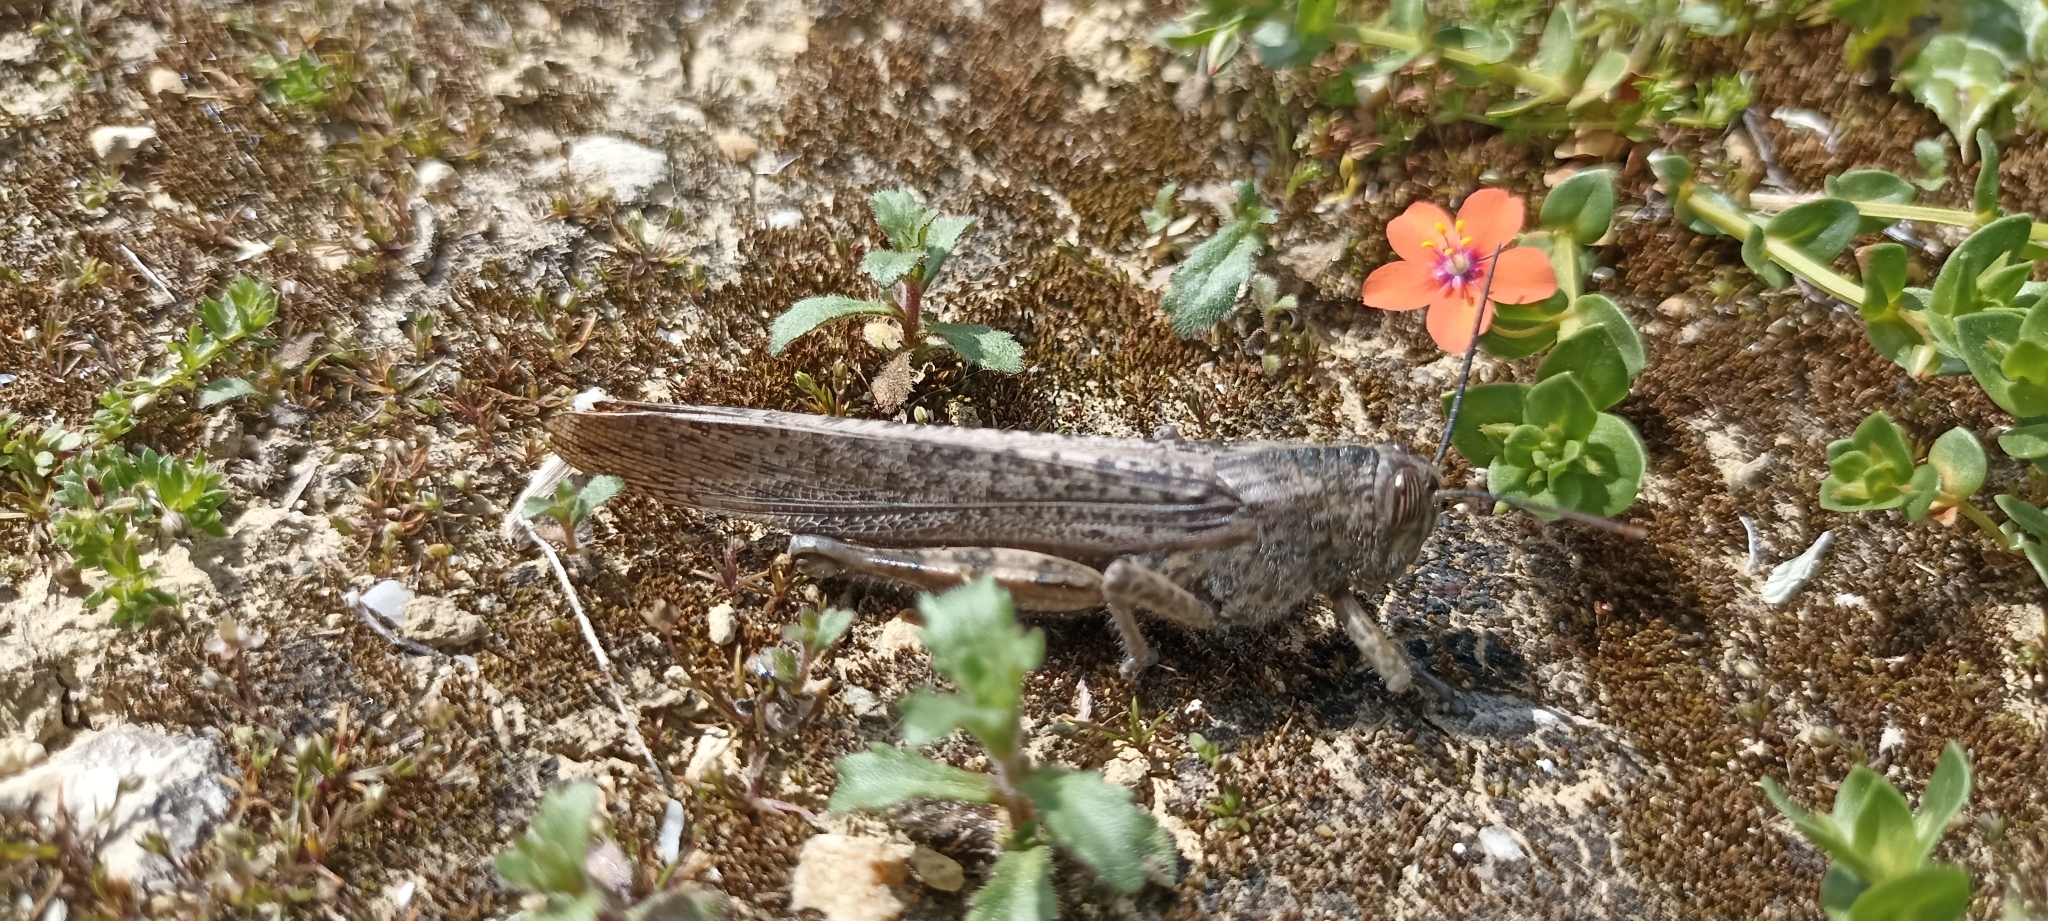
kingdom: Animalia
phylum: Arthropoda
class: Insecta
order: Orthoptera
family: Acrididae
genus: Anacridium
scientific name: Anacridium aegyptium
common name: Egyptian grasshopper
